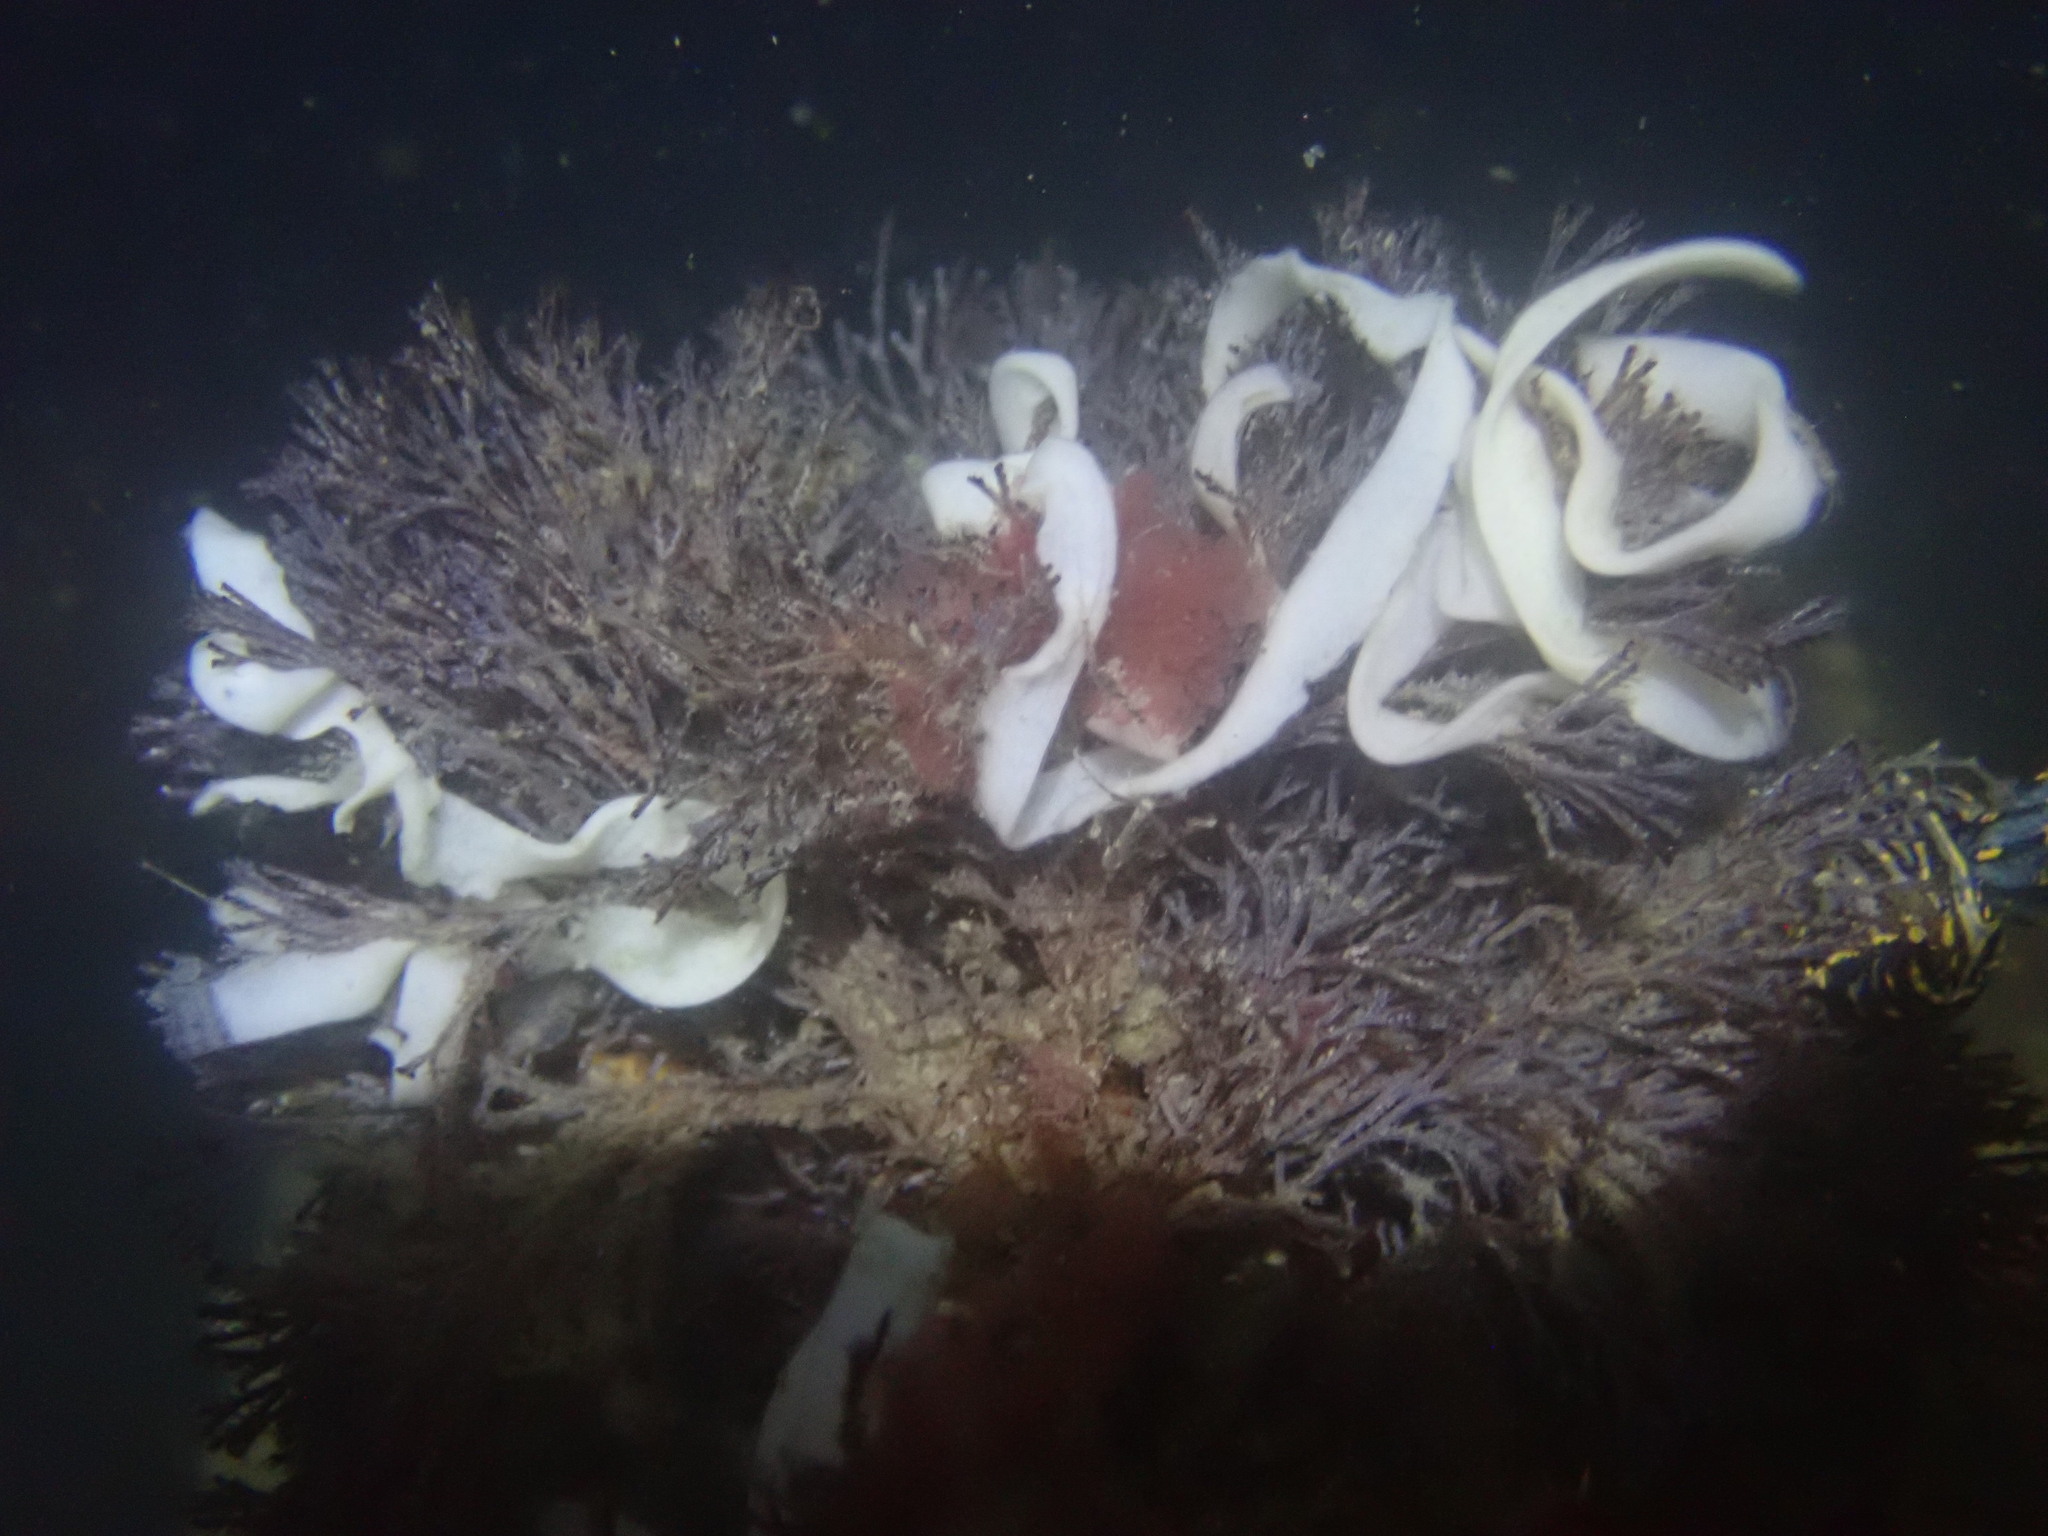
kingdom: Animalia
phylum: Mollusca
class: Gastropoda
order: Nudibranchia
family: Polyceridae
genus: Polycera
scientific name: Polycera atra
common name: Orange-spike polycera
